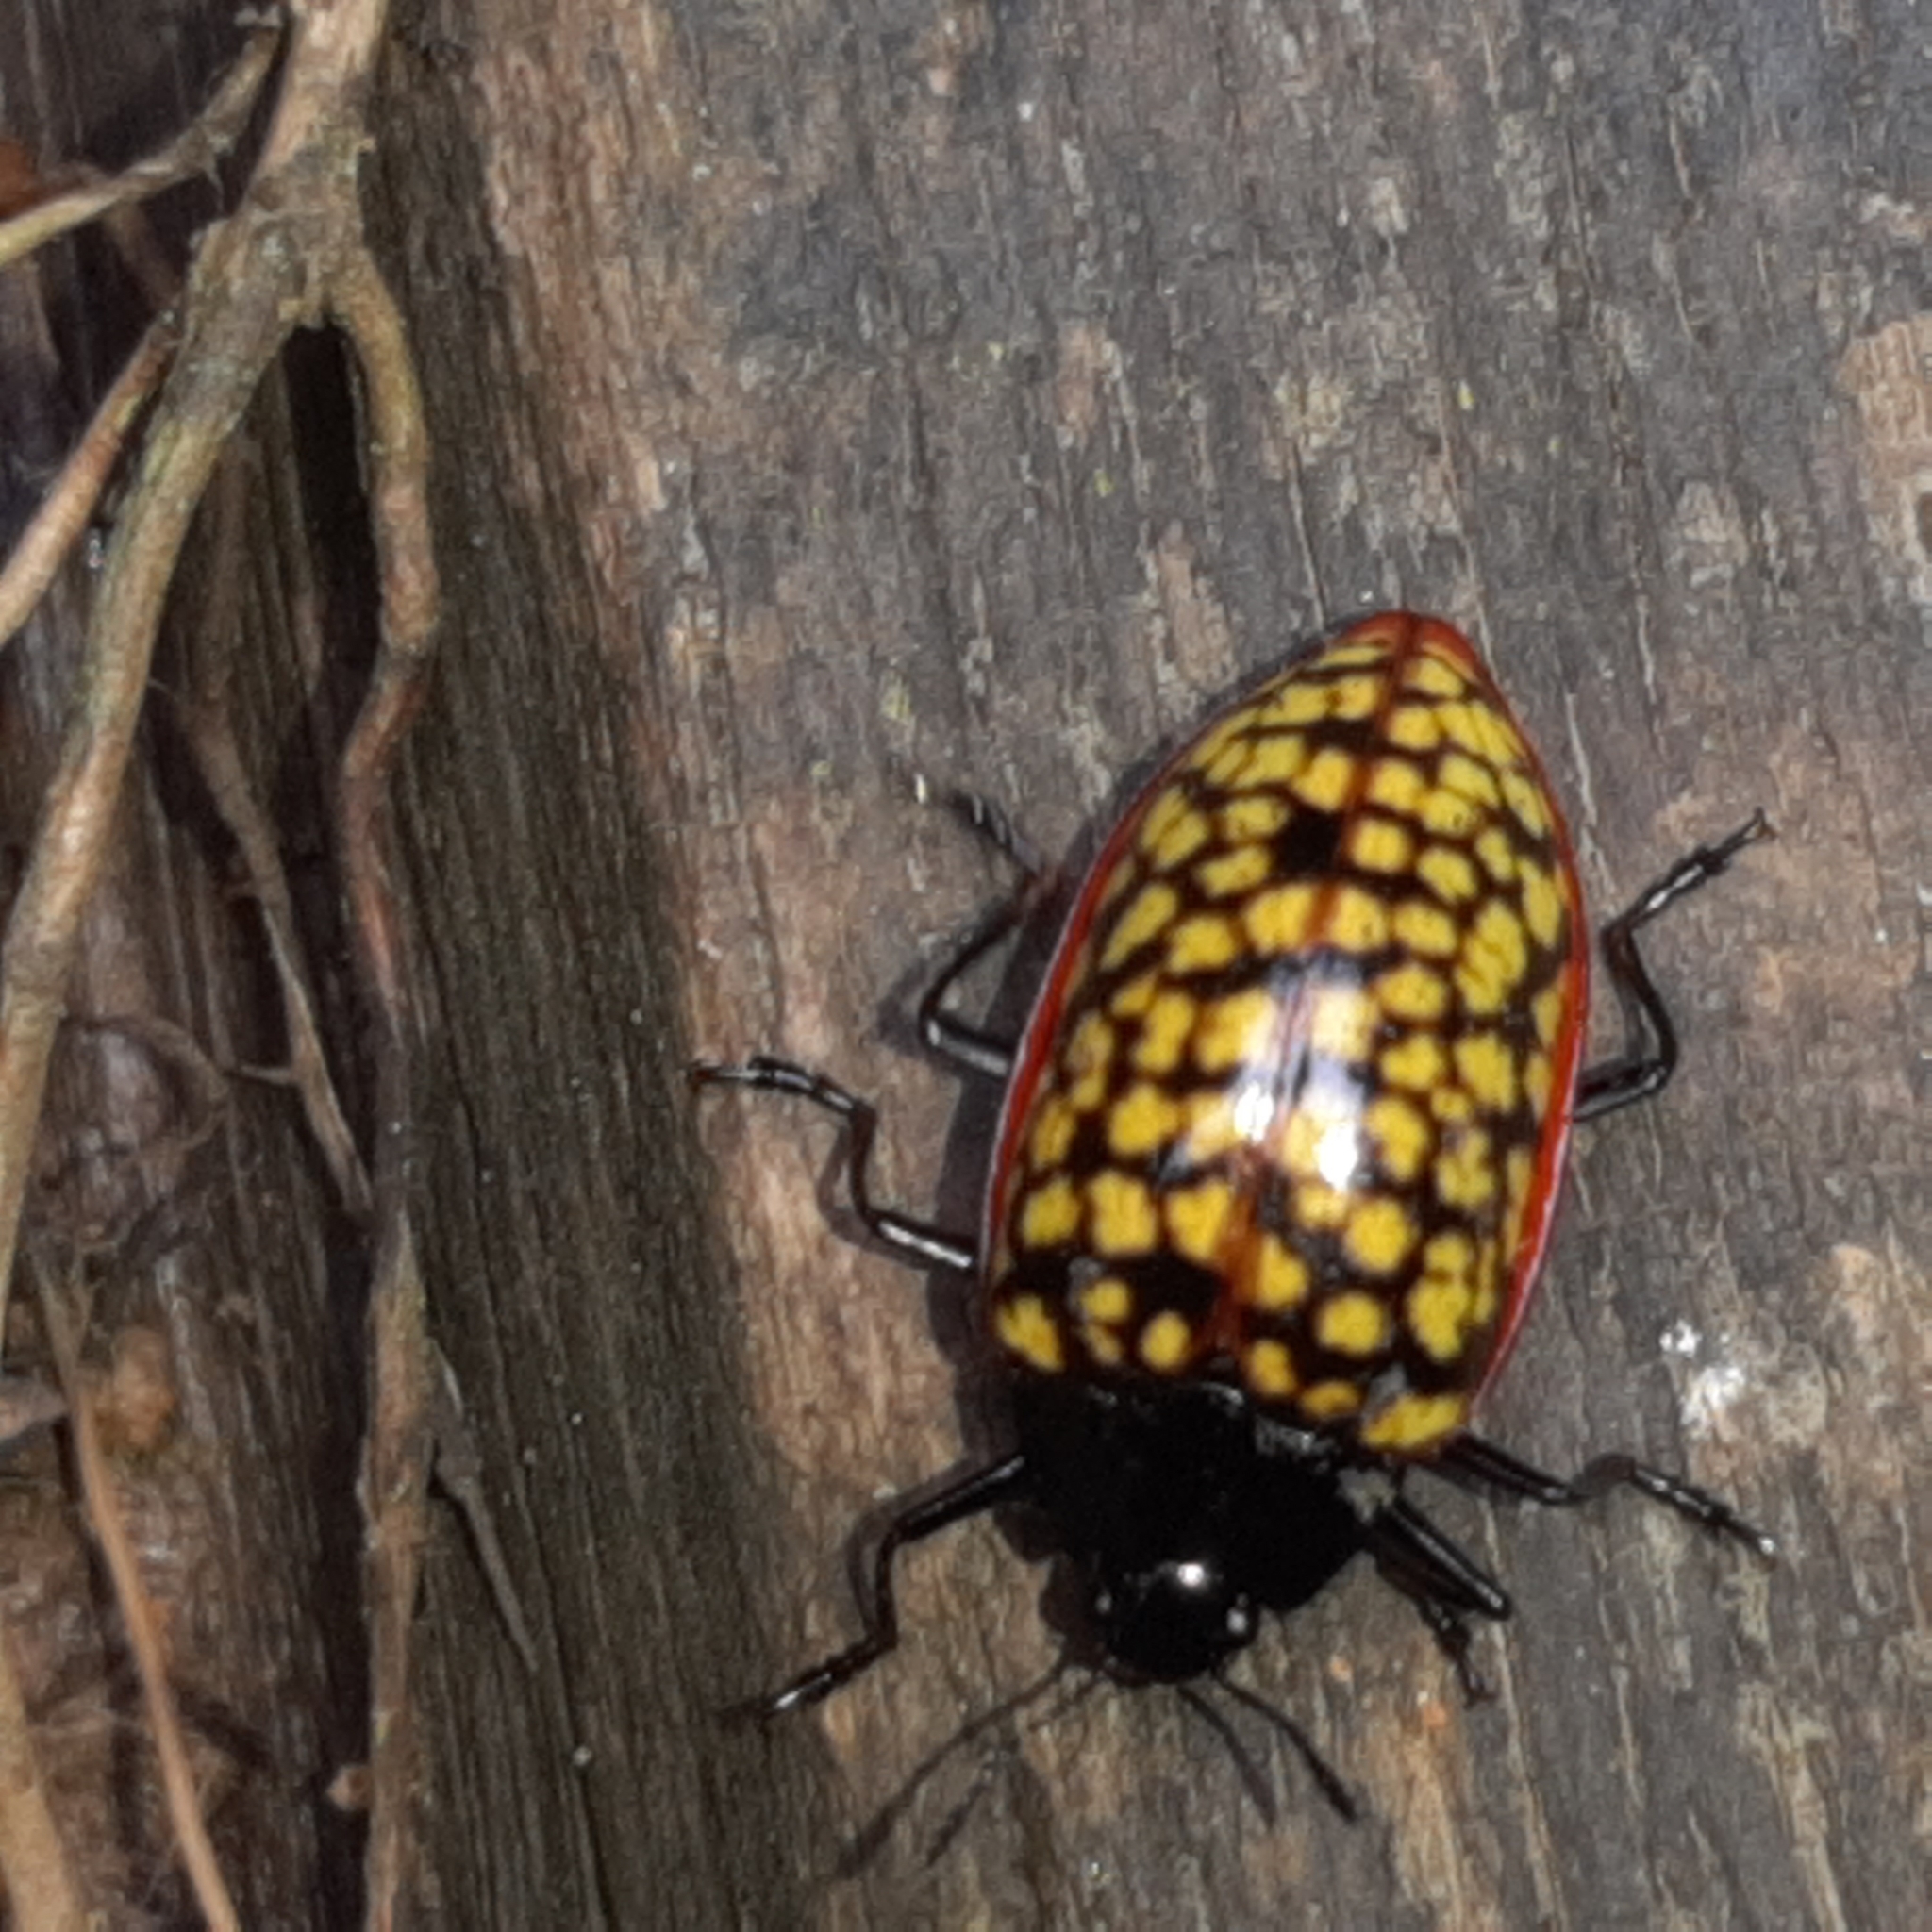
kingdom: Animalia
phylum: Arthropoda
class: Insecta
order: Coleoptera
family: Erotylidae
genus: Erotylina
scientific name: Erotylina
